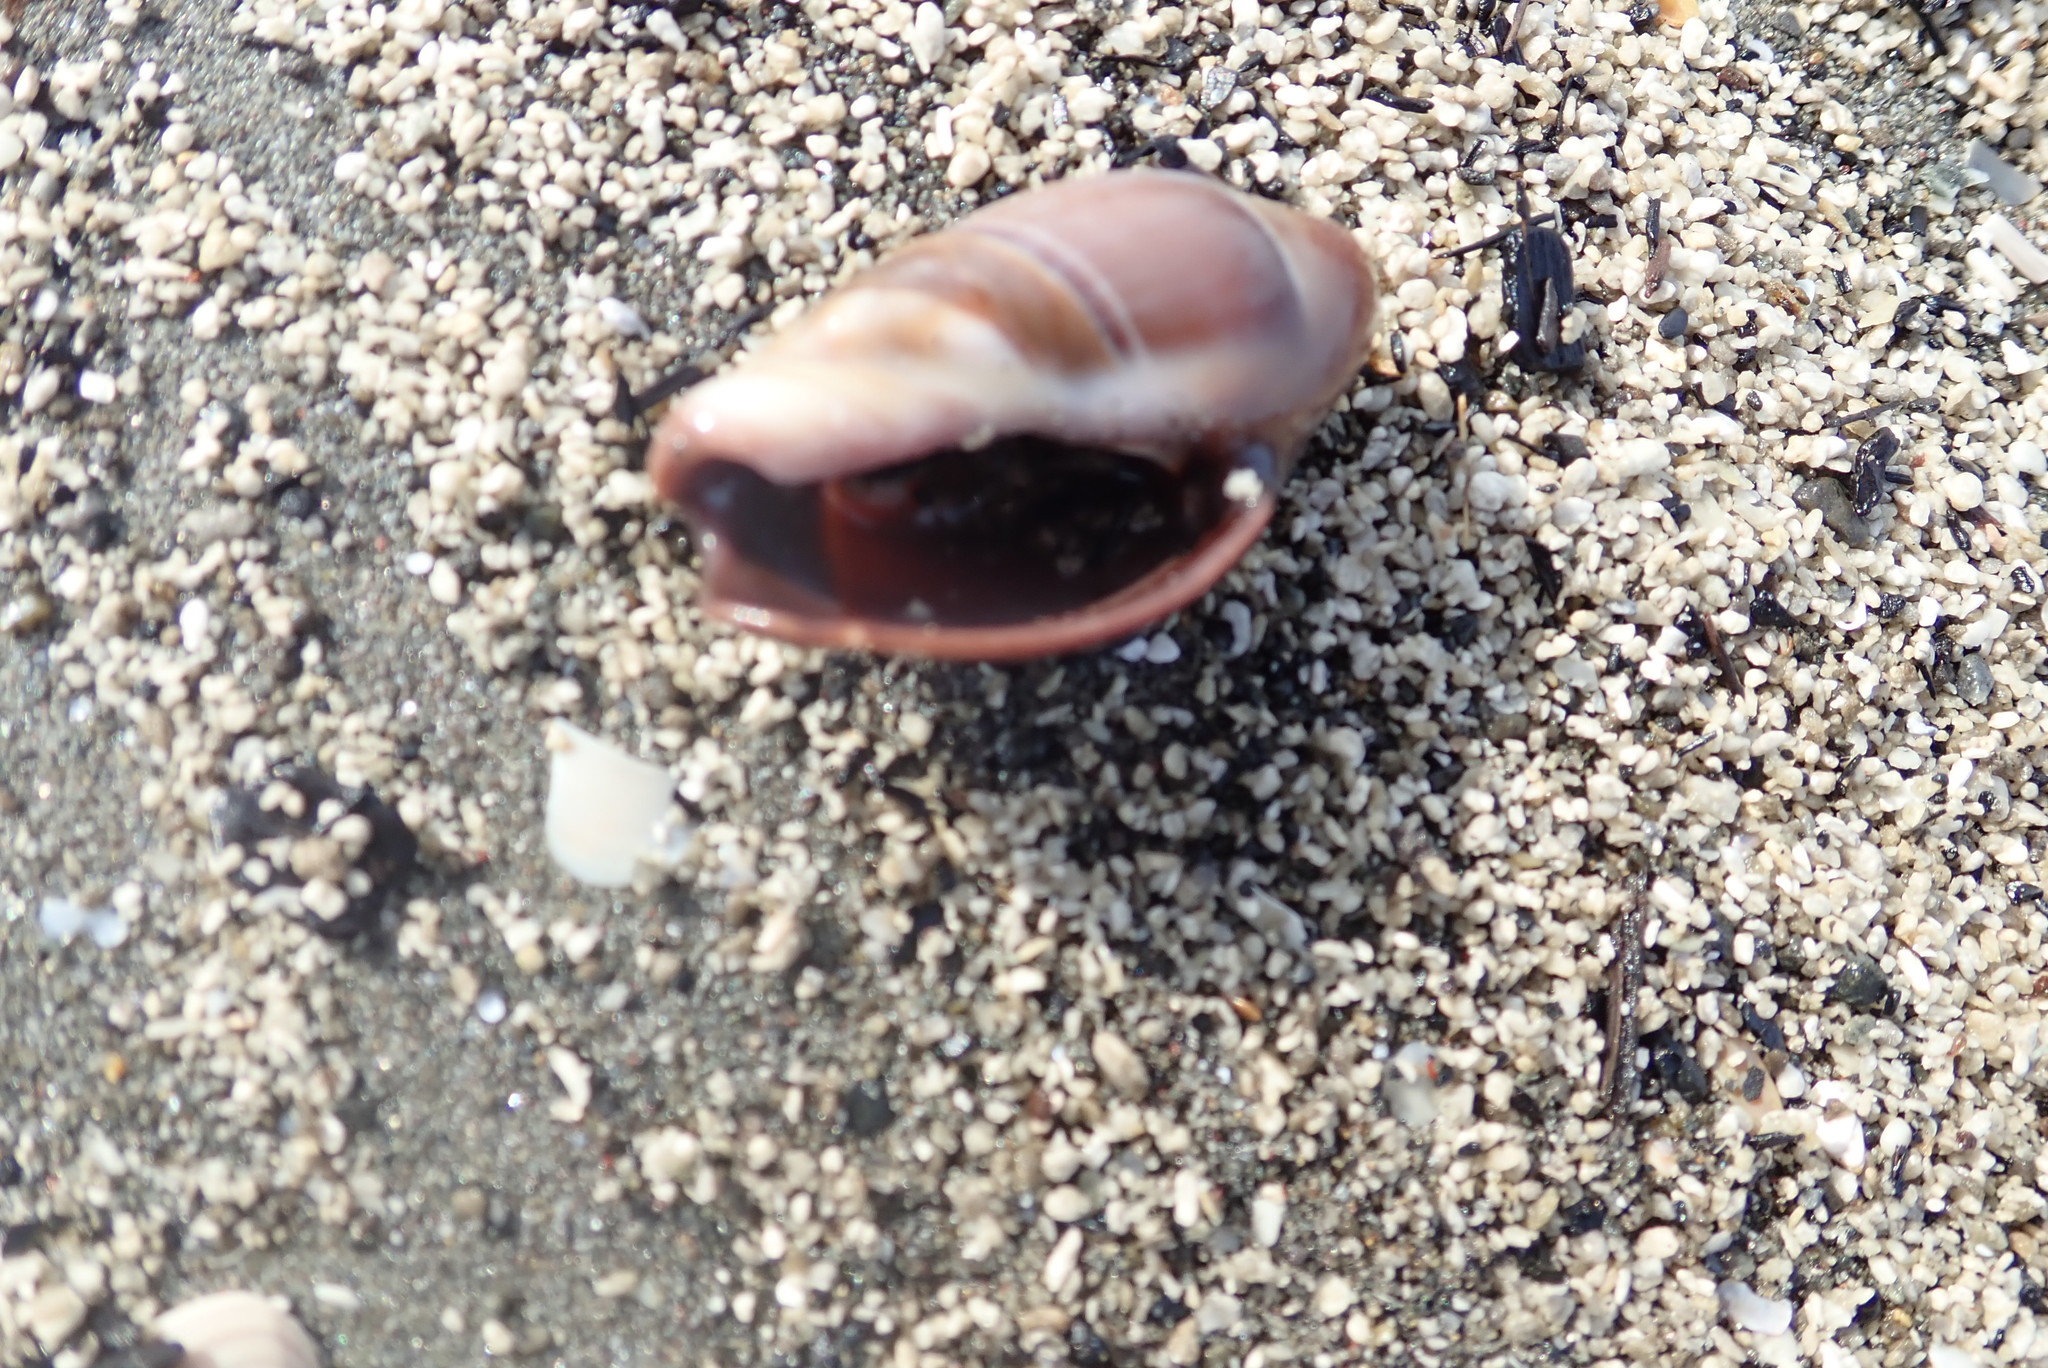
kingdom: Animalia
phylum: Mollusca
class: Gastropoda
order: Neogastropoda
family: Ancillariidae
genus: Amalda
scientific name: Amalda australis
